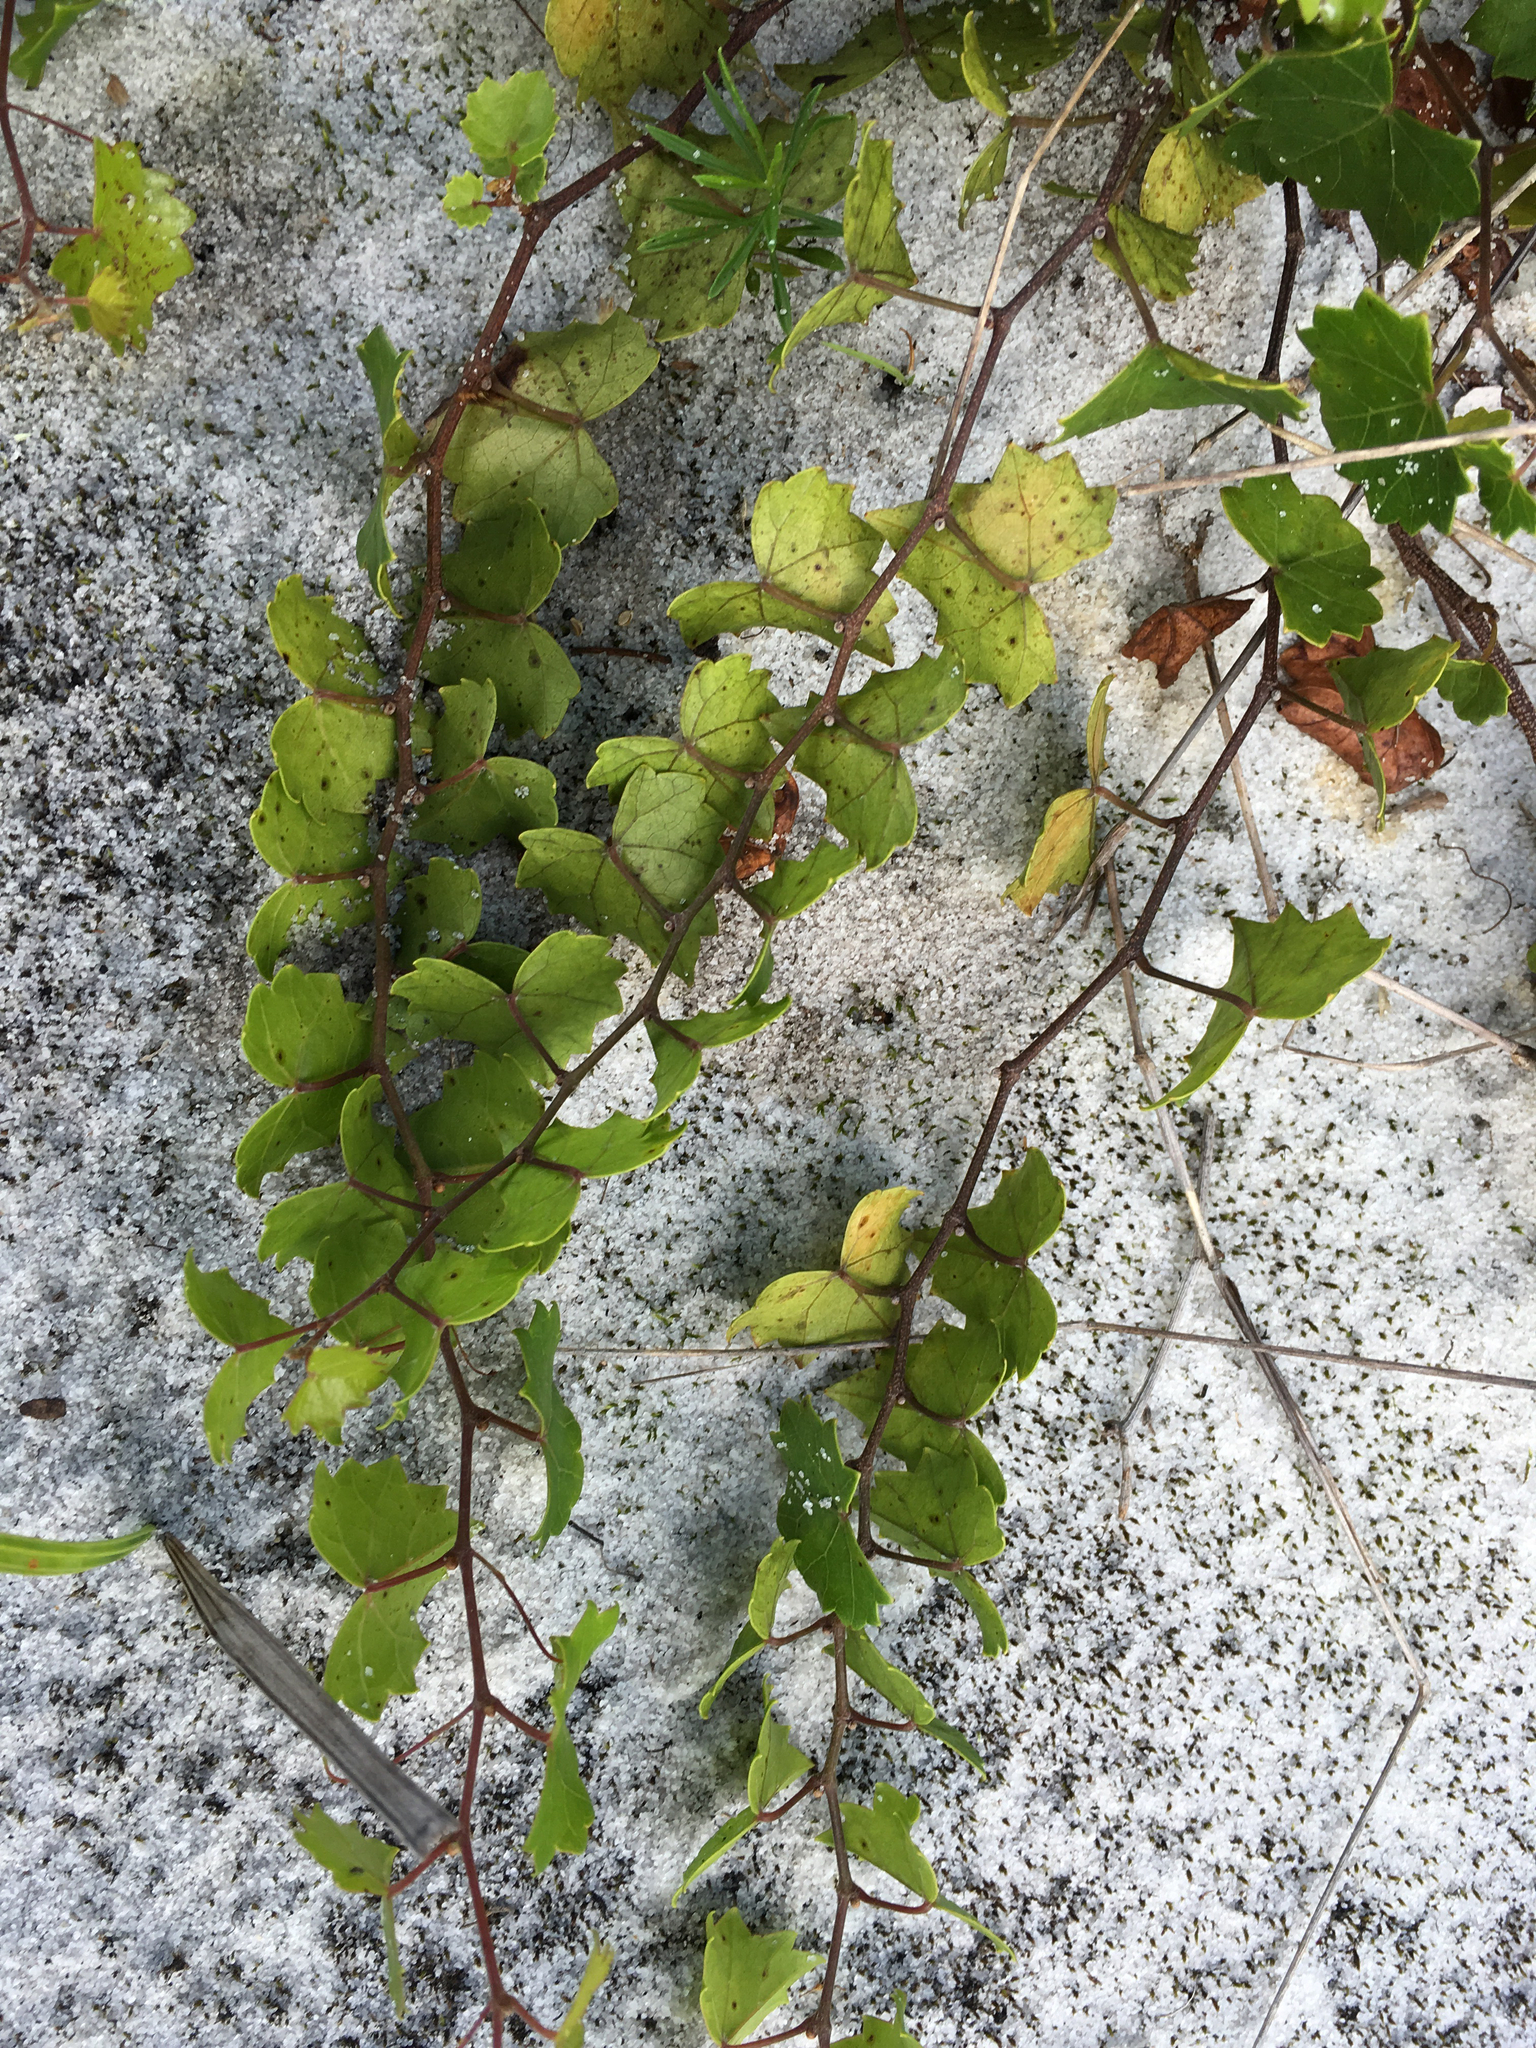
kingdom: Plantae
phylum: Tracheophyta
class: Magnoliopsida
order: Vitales
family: Vitaceae
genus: Vitis
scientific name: Vitis rotundifolia
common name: Muscadine grape
